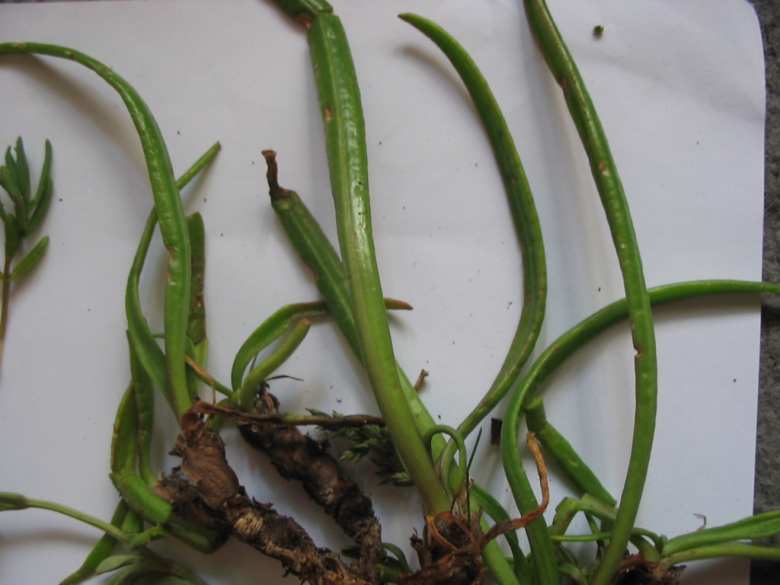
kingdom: Plantae
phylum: Tracheophyta
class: Magnoliopsida
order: Lamiales
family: Plantaginaceae
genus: Plantago
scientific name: Plantago maritima
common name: Sea plantain
